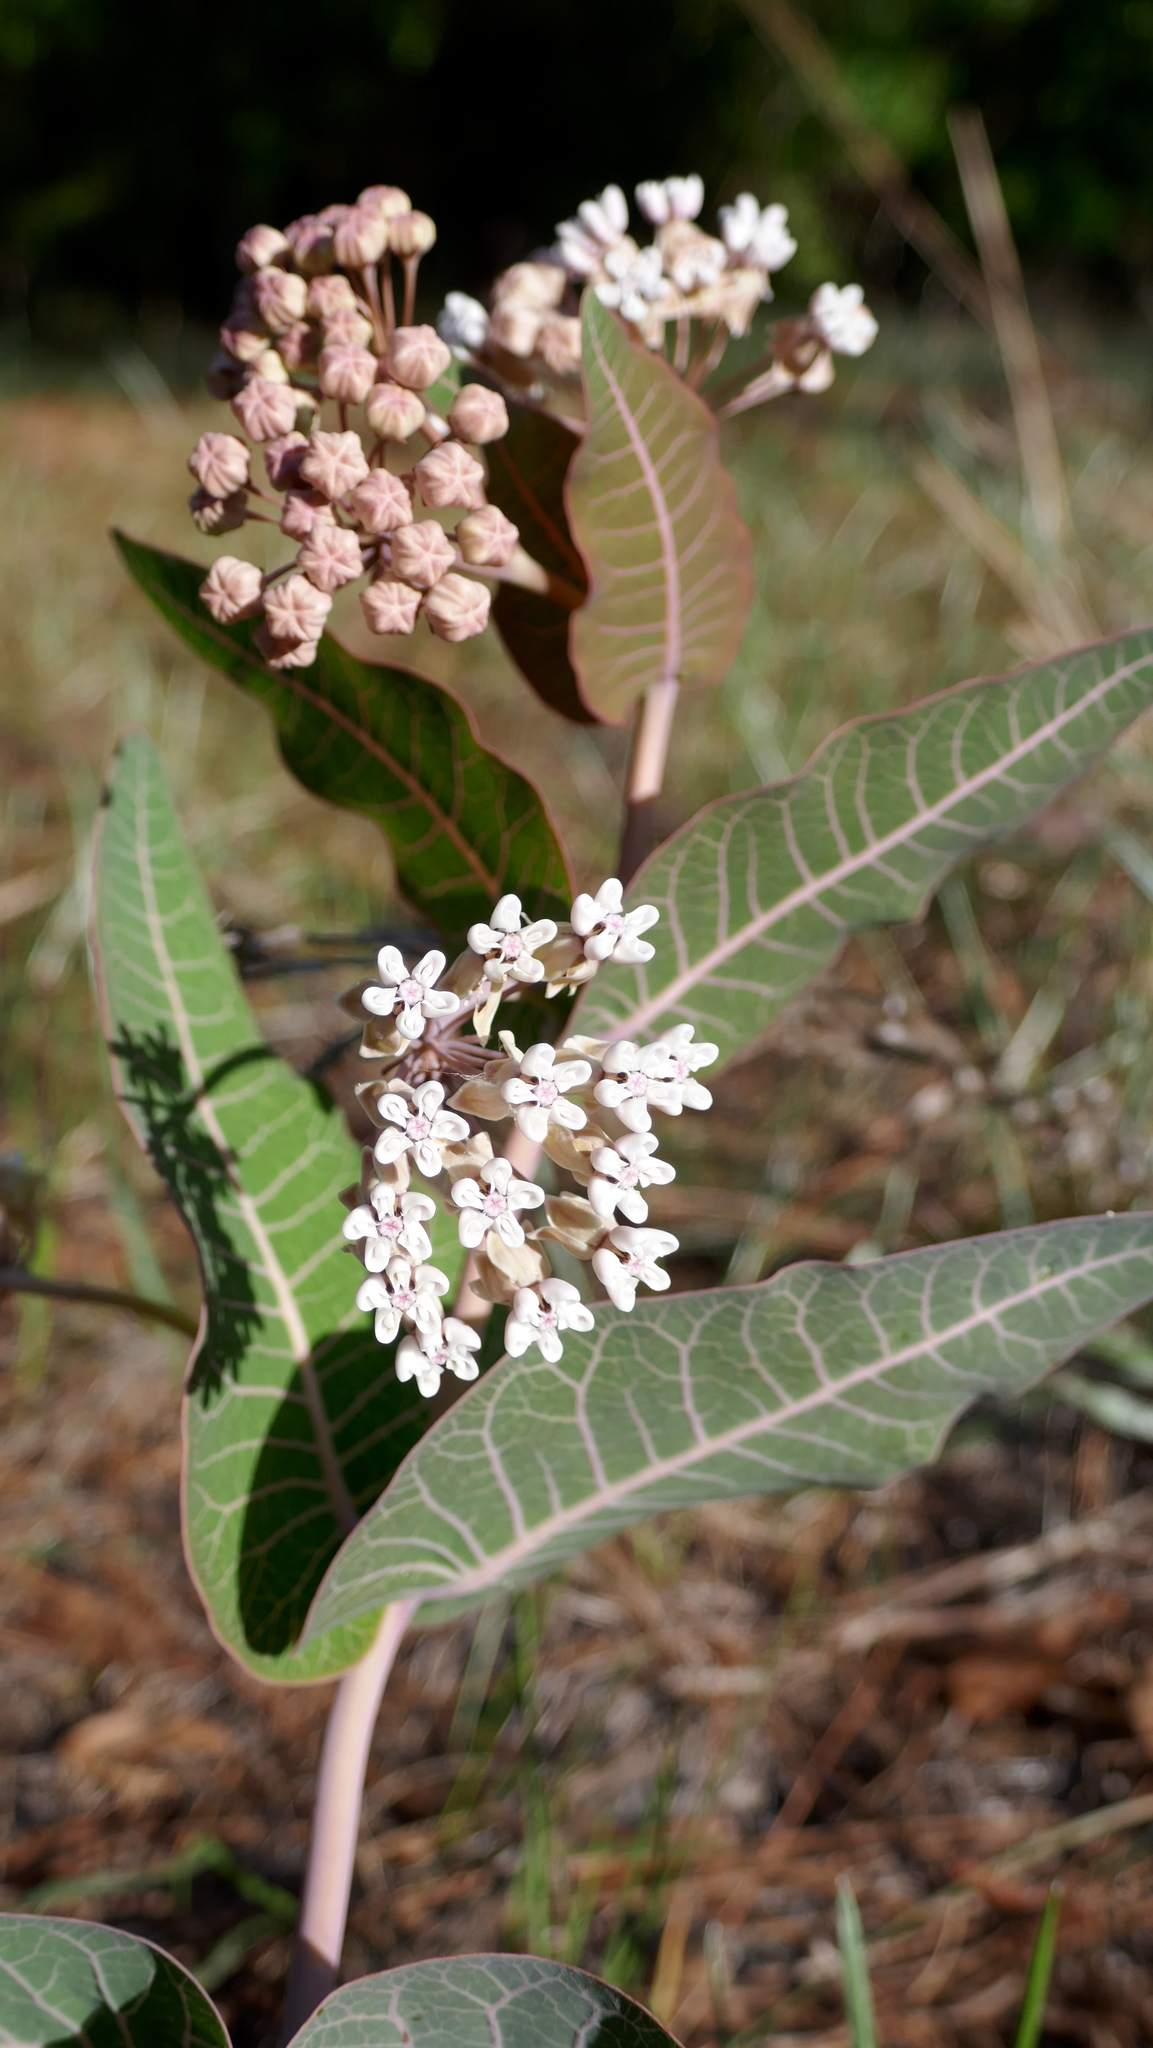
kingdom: Plantae
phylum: Tracheophyta
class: Magnoliopsida
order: Gentianales
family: Apocynaceae
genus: Asclepias
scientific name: Asclepias humistrata
